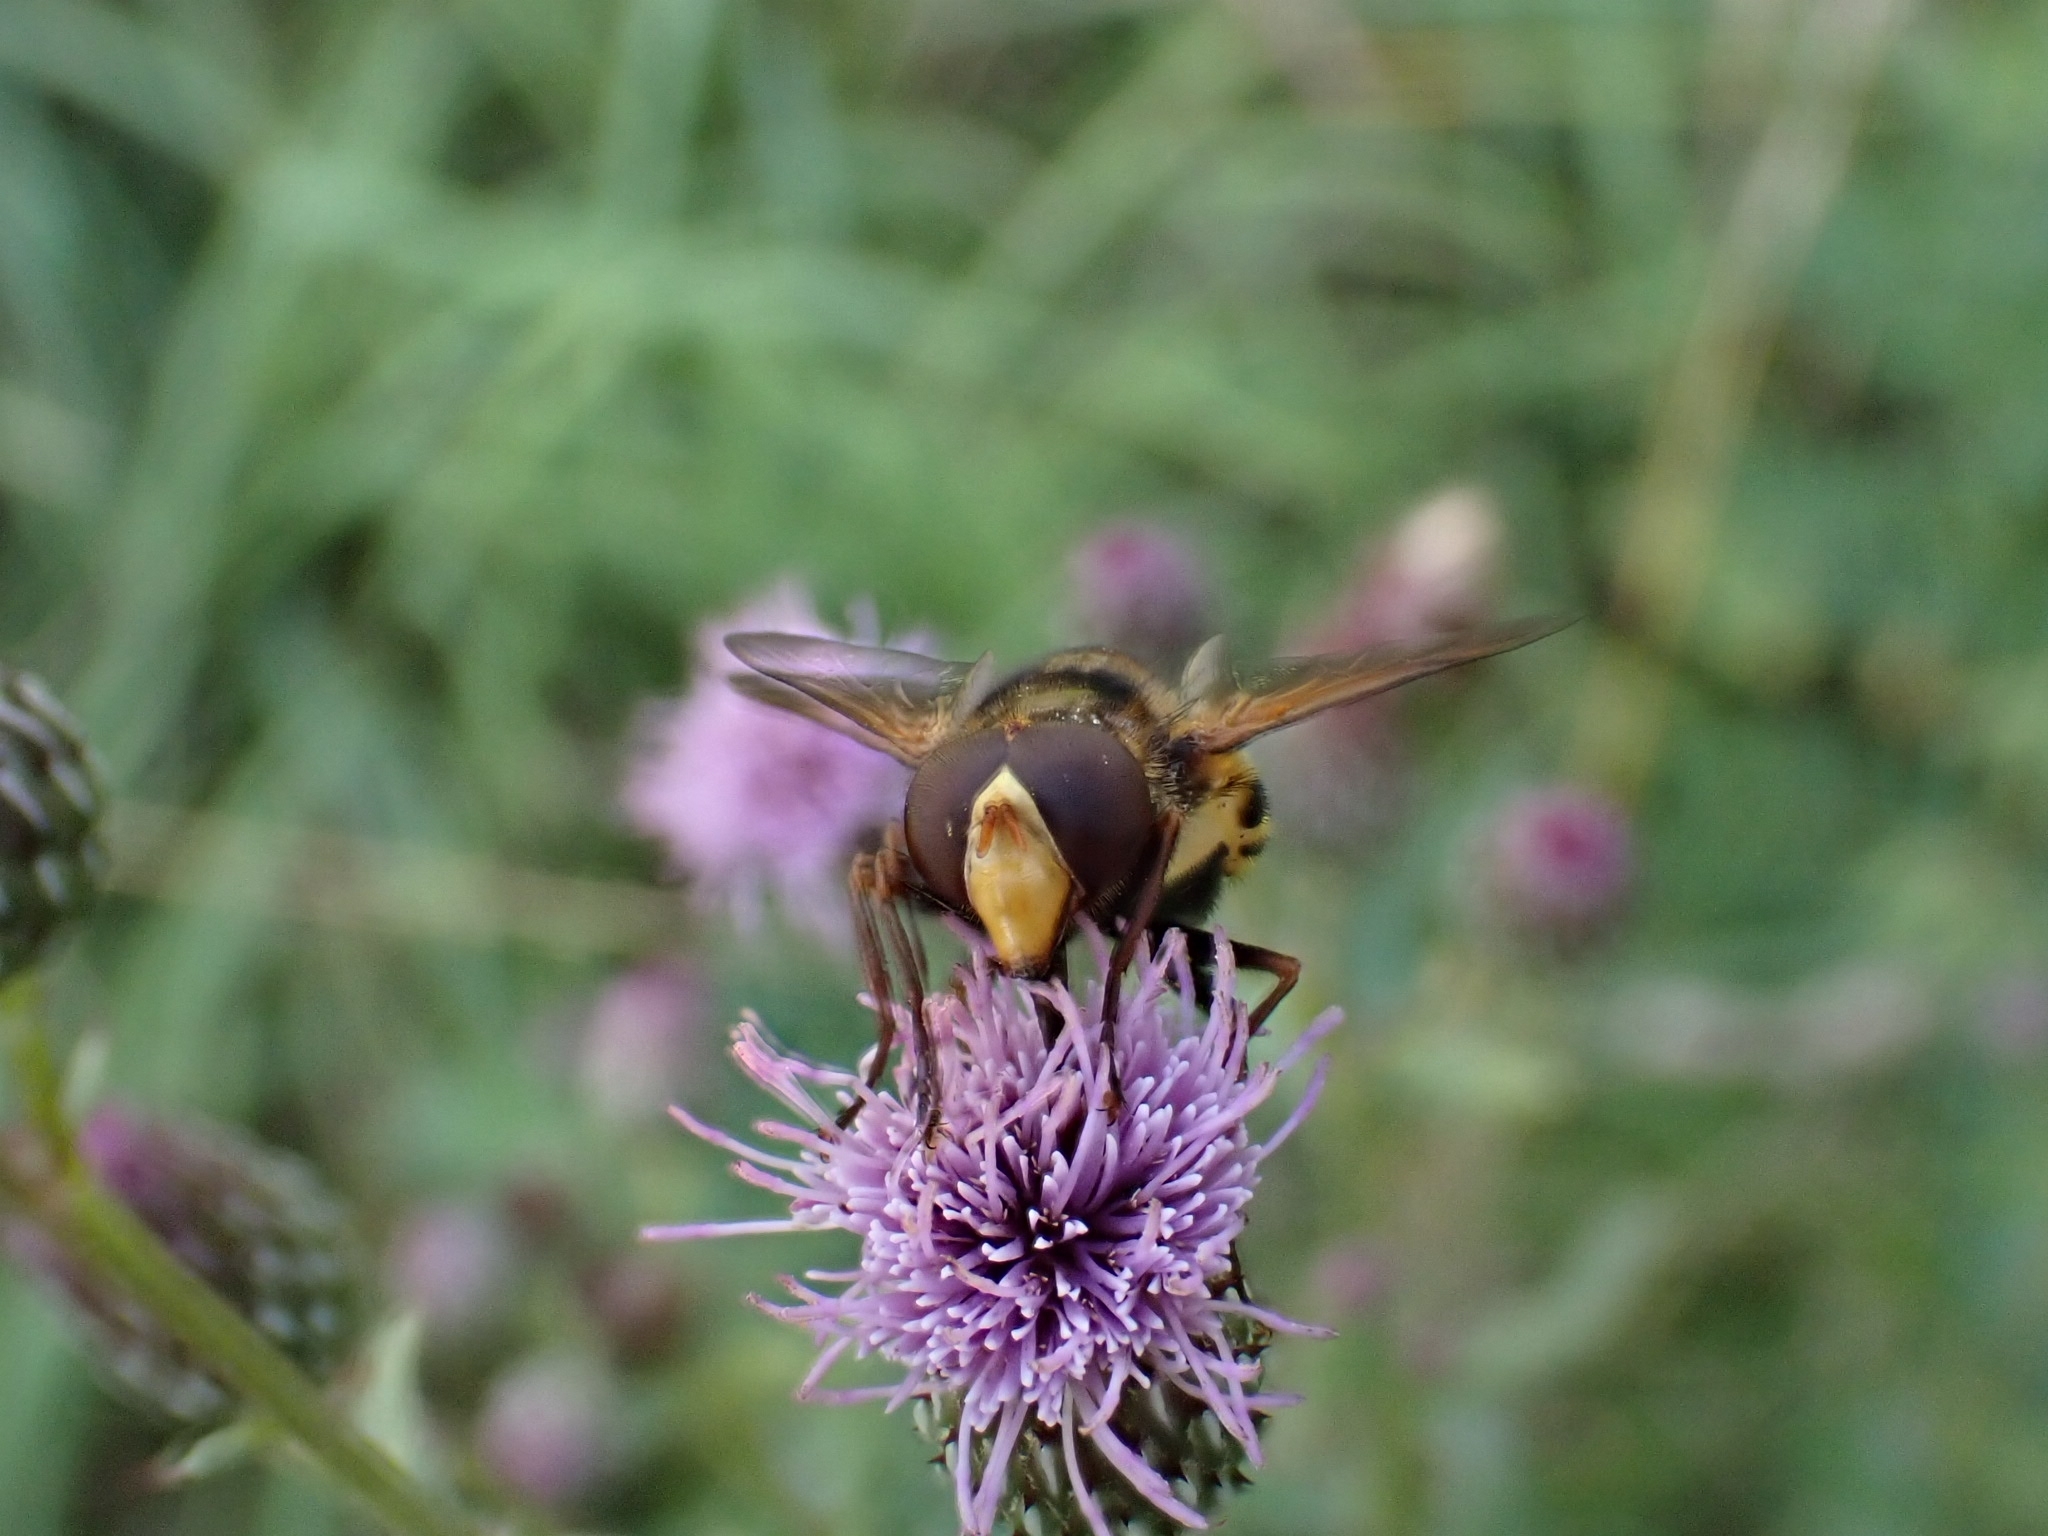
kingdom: Animalia
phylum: Arthropoda
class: Insecta
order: Diptera
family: Syrphidae
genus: Volucella
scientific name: Volucella inanis
